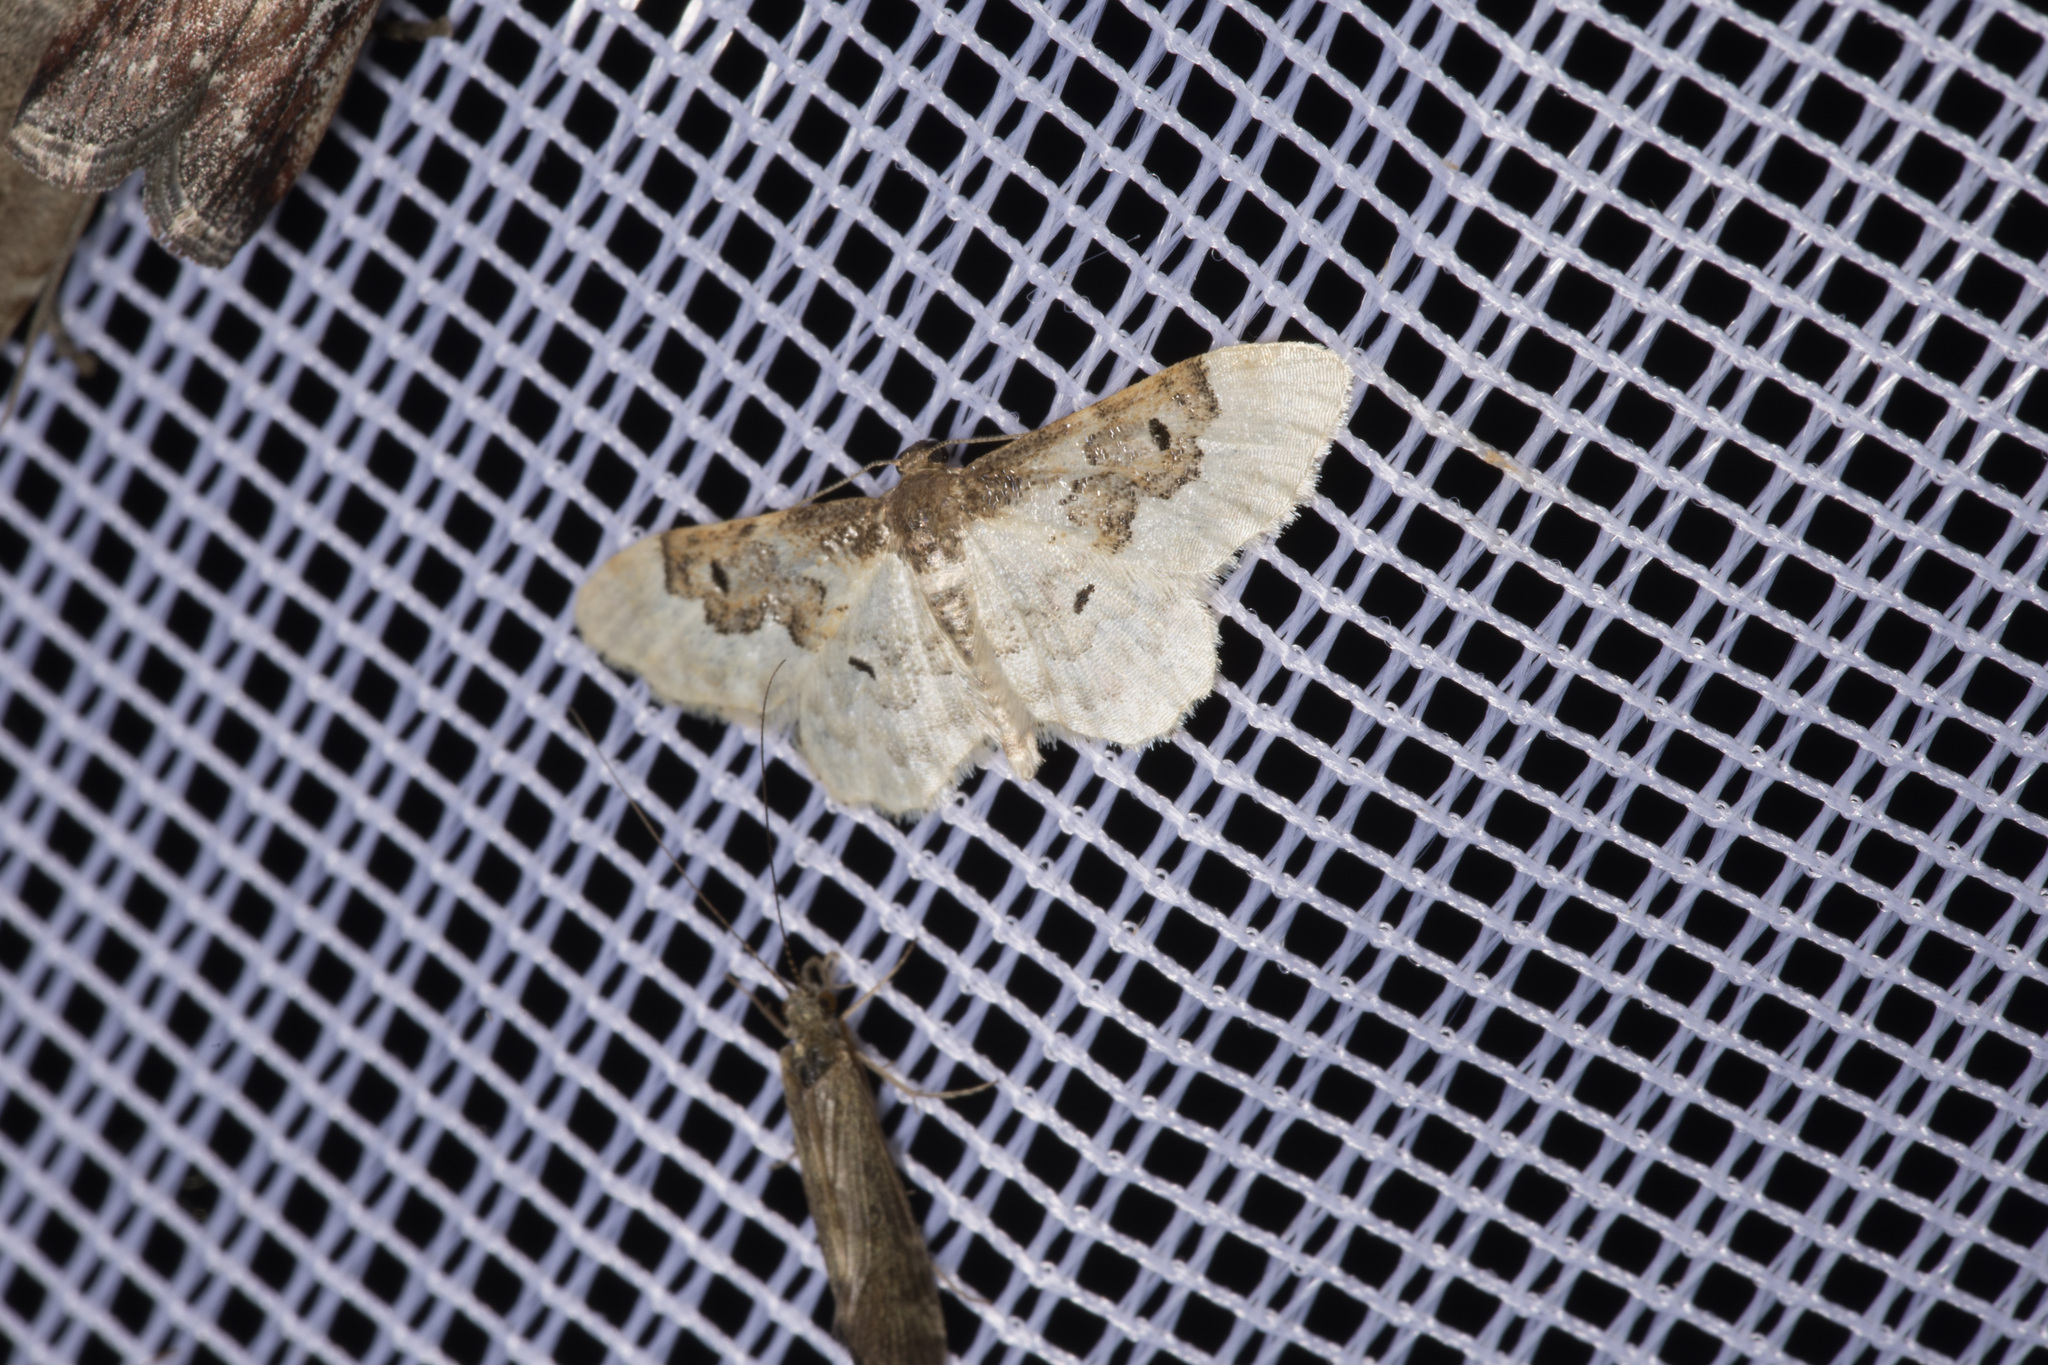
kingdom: Animalia
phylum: Arthropoda
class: Insecta
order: Lepidoptera
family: Geometridae
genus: Idaea
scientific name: Idaea rusticata
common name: Least carpet
